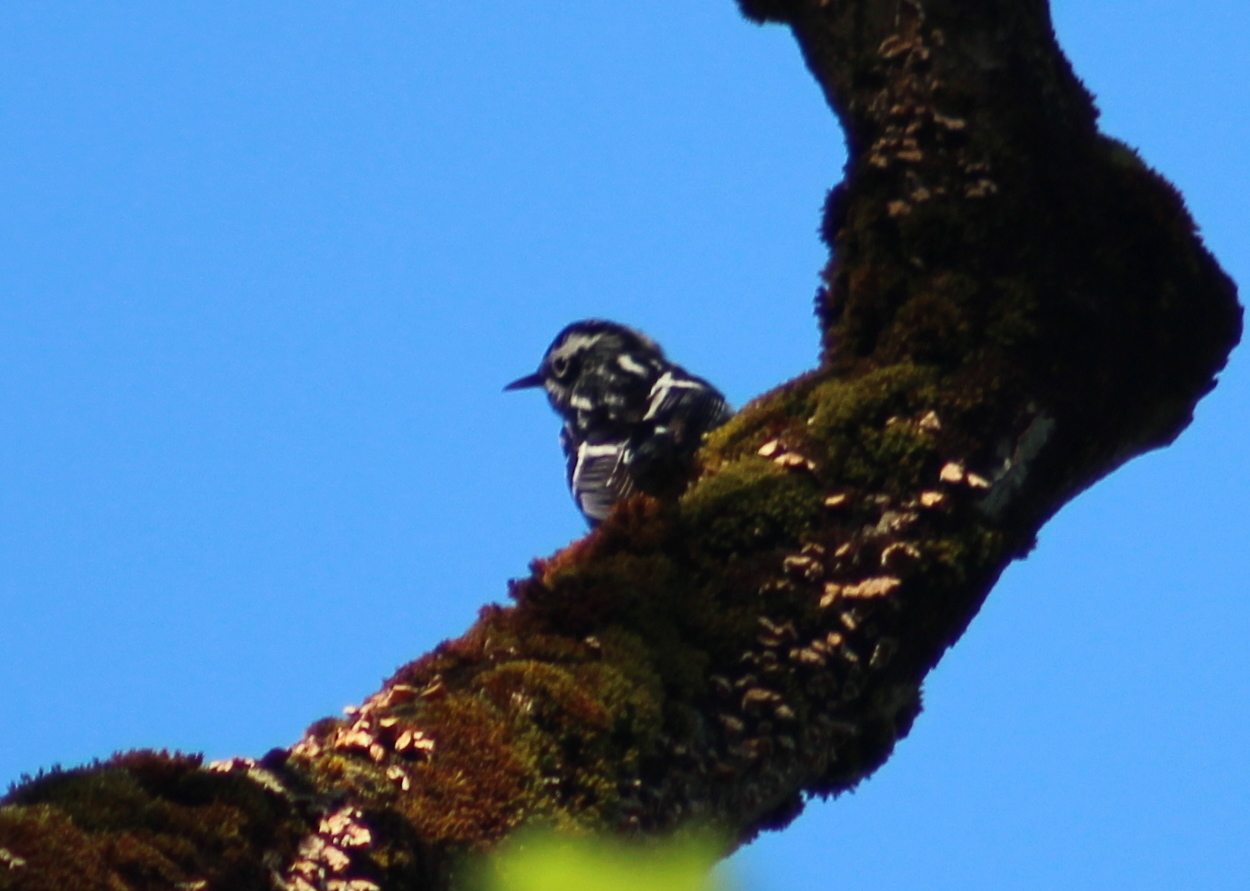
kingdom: Animalia
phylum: Chordata
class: Aves
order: Passeriformes
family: Parulidae
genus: Mniotilta
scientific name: Mniotilta varia
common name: Black-and-white warbler
